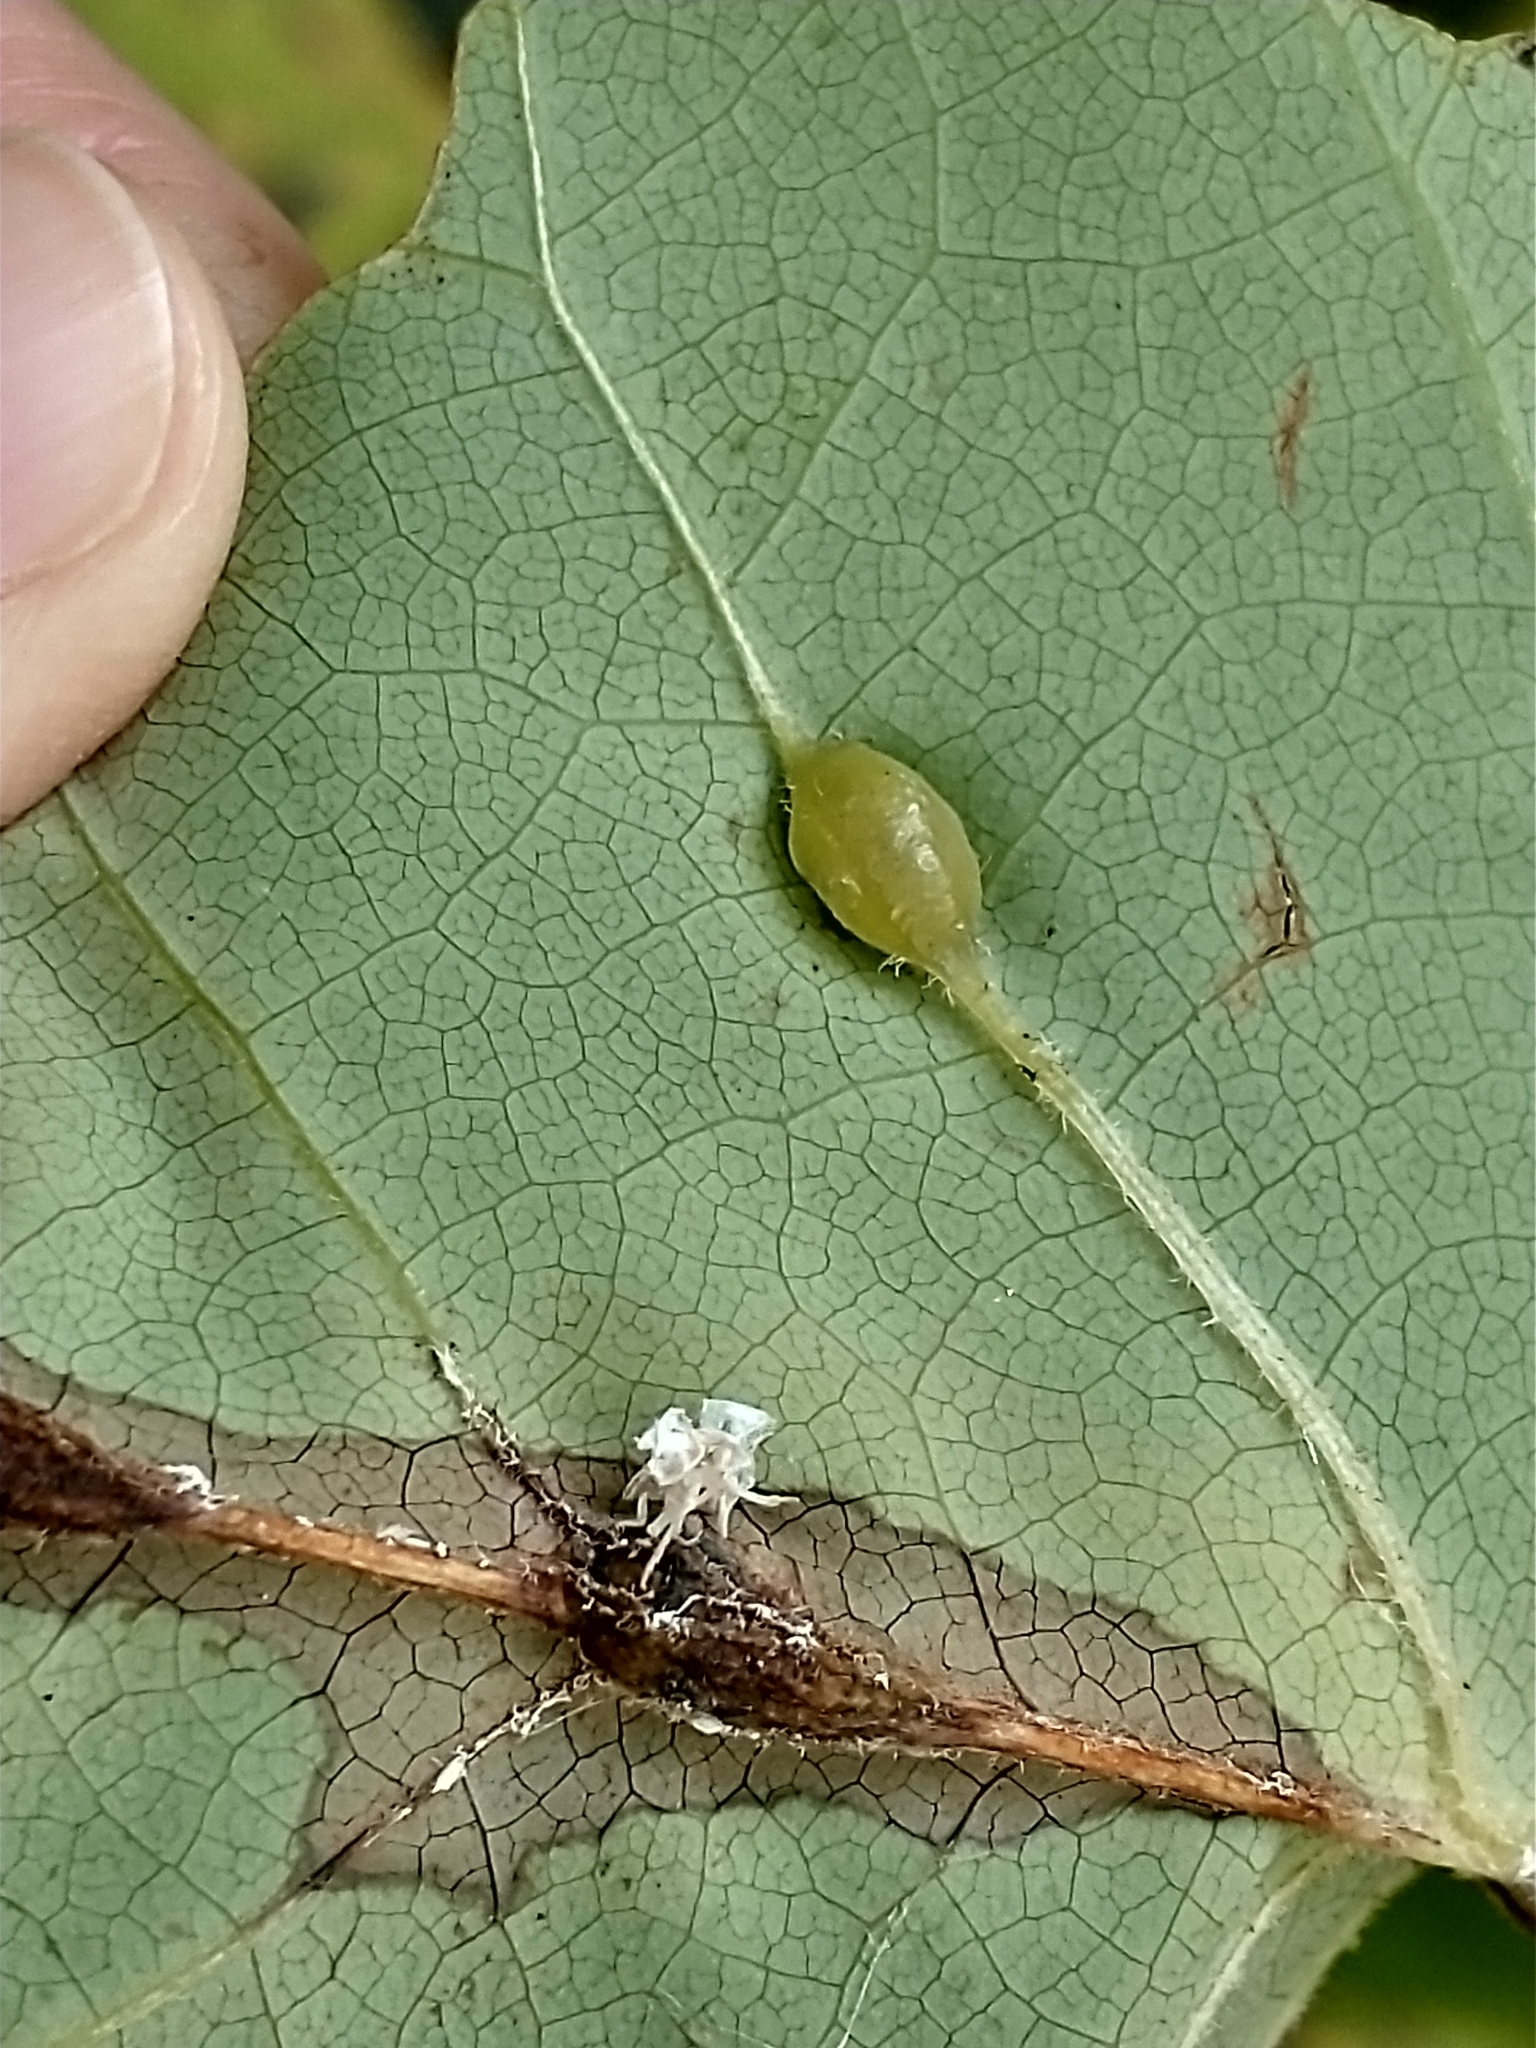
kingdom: Animalia
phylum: Arthropoda
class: Insecta
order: Diptera
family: Cecidomyiidae
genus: Resseliella
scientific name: Resseliella liriodendri
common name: Tulip tree leaf spot gall midge
